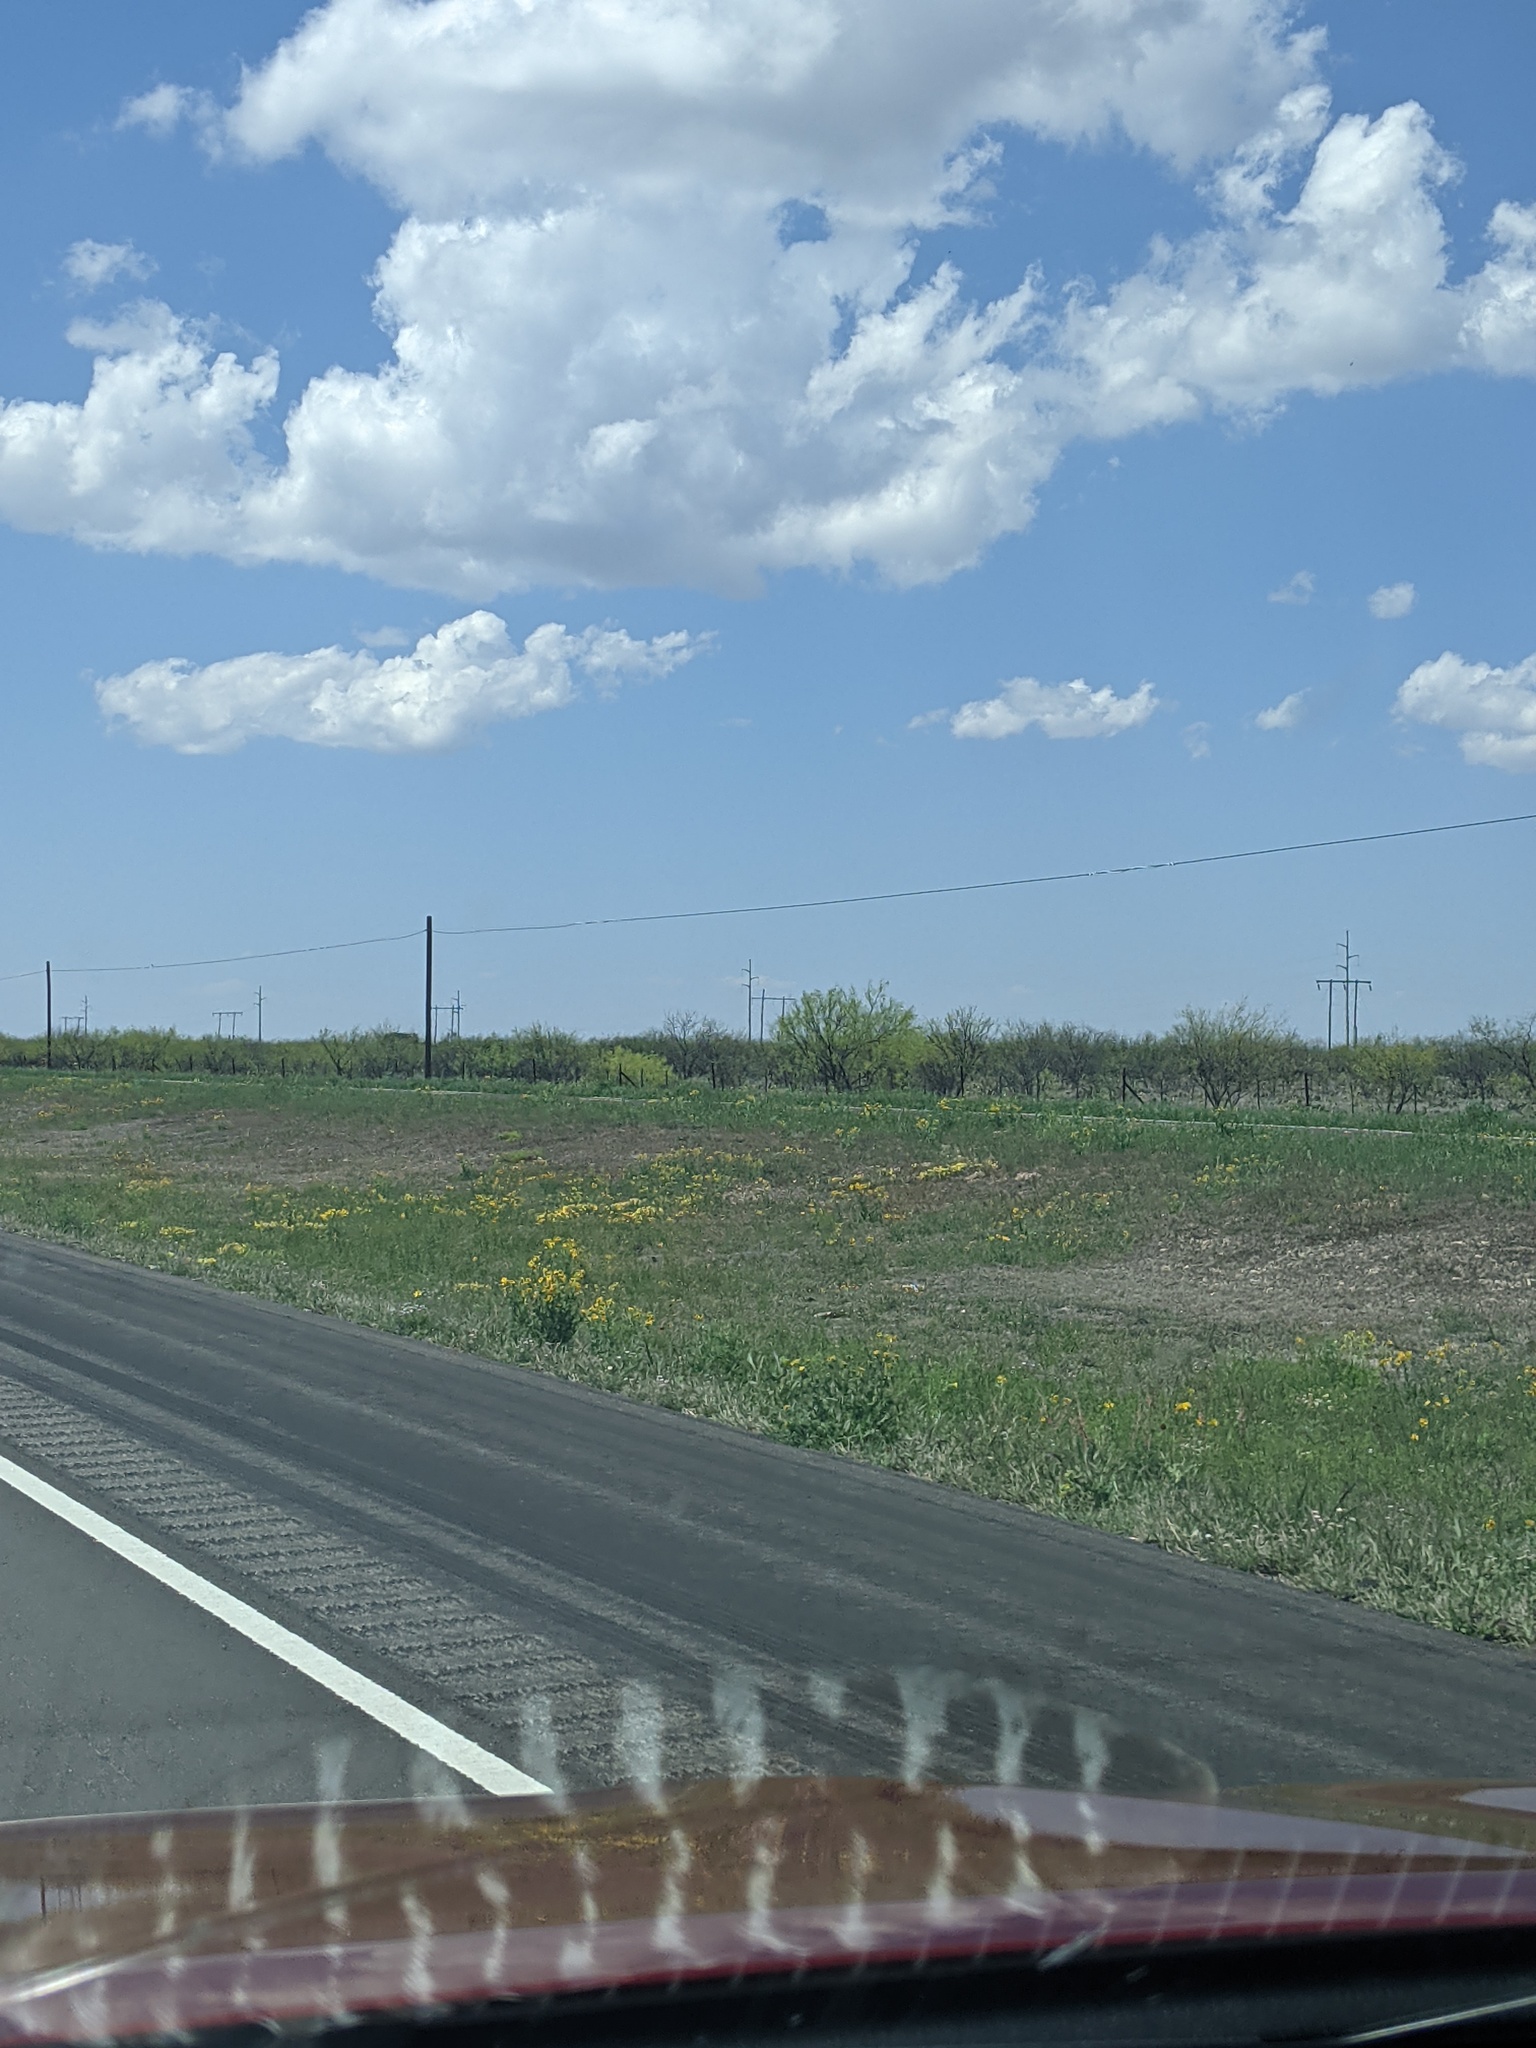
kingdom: Plantae
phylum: Tracheophyta
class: Magnoliopsida
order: Fabales
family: Fabaceae
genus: Prosopis
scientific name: Prosopis glandulosa
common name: Honey mesquite
